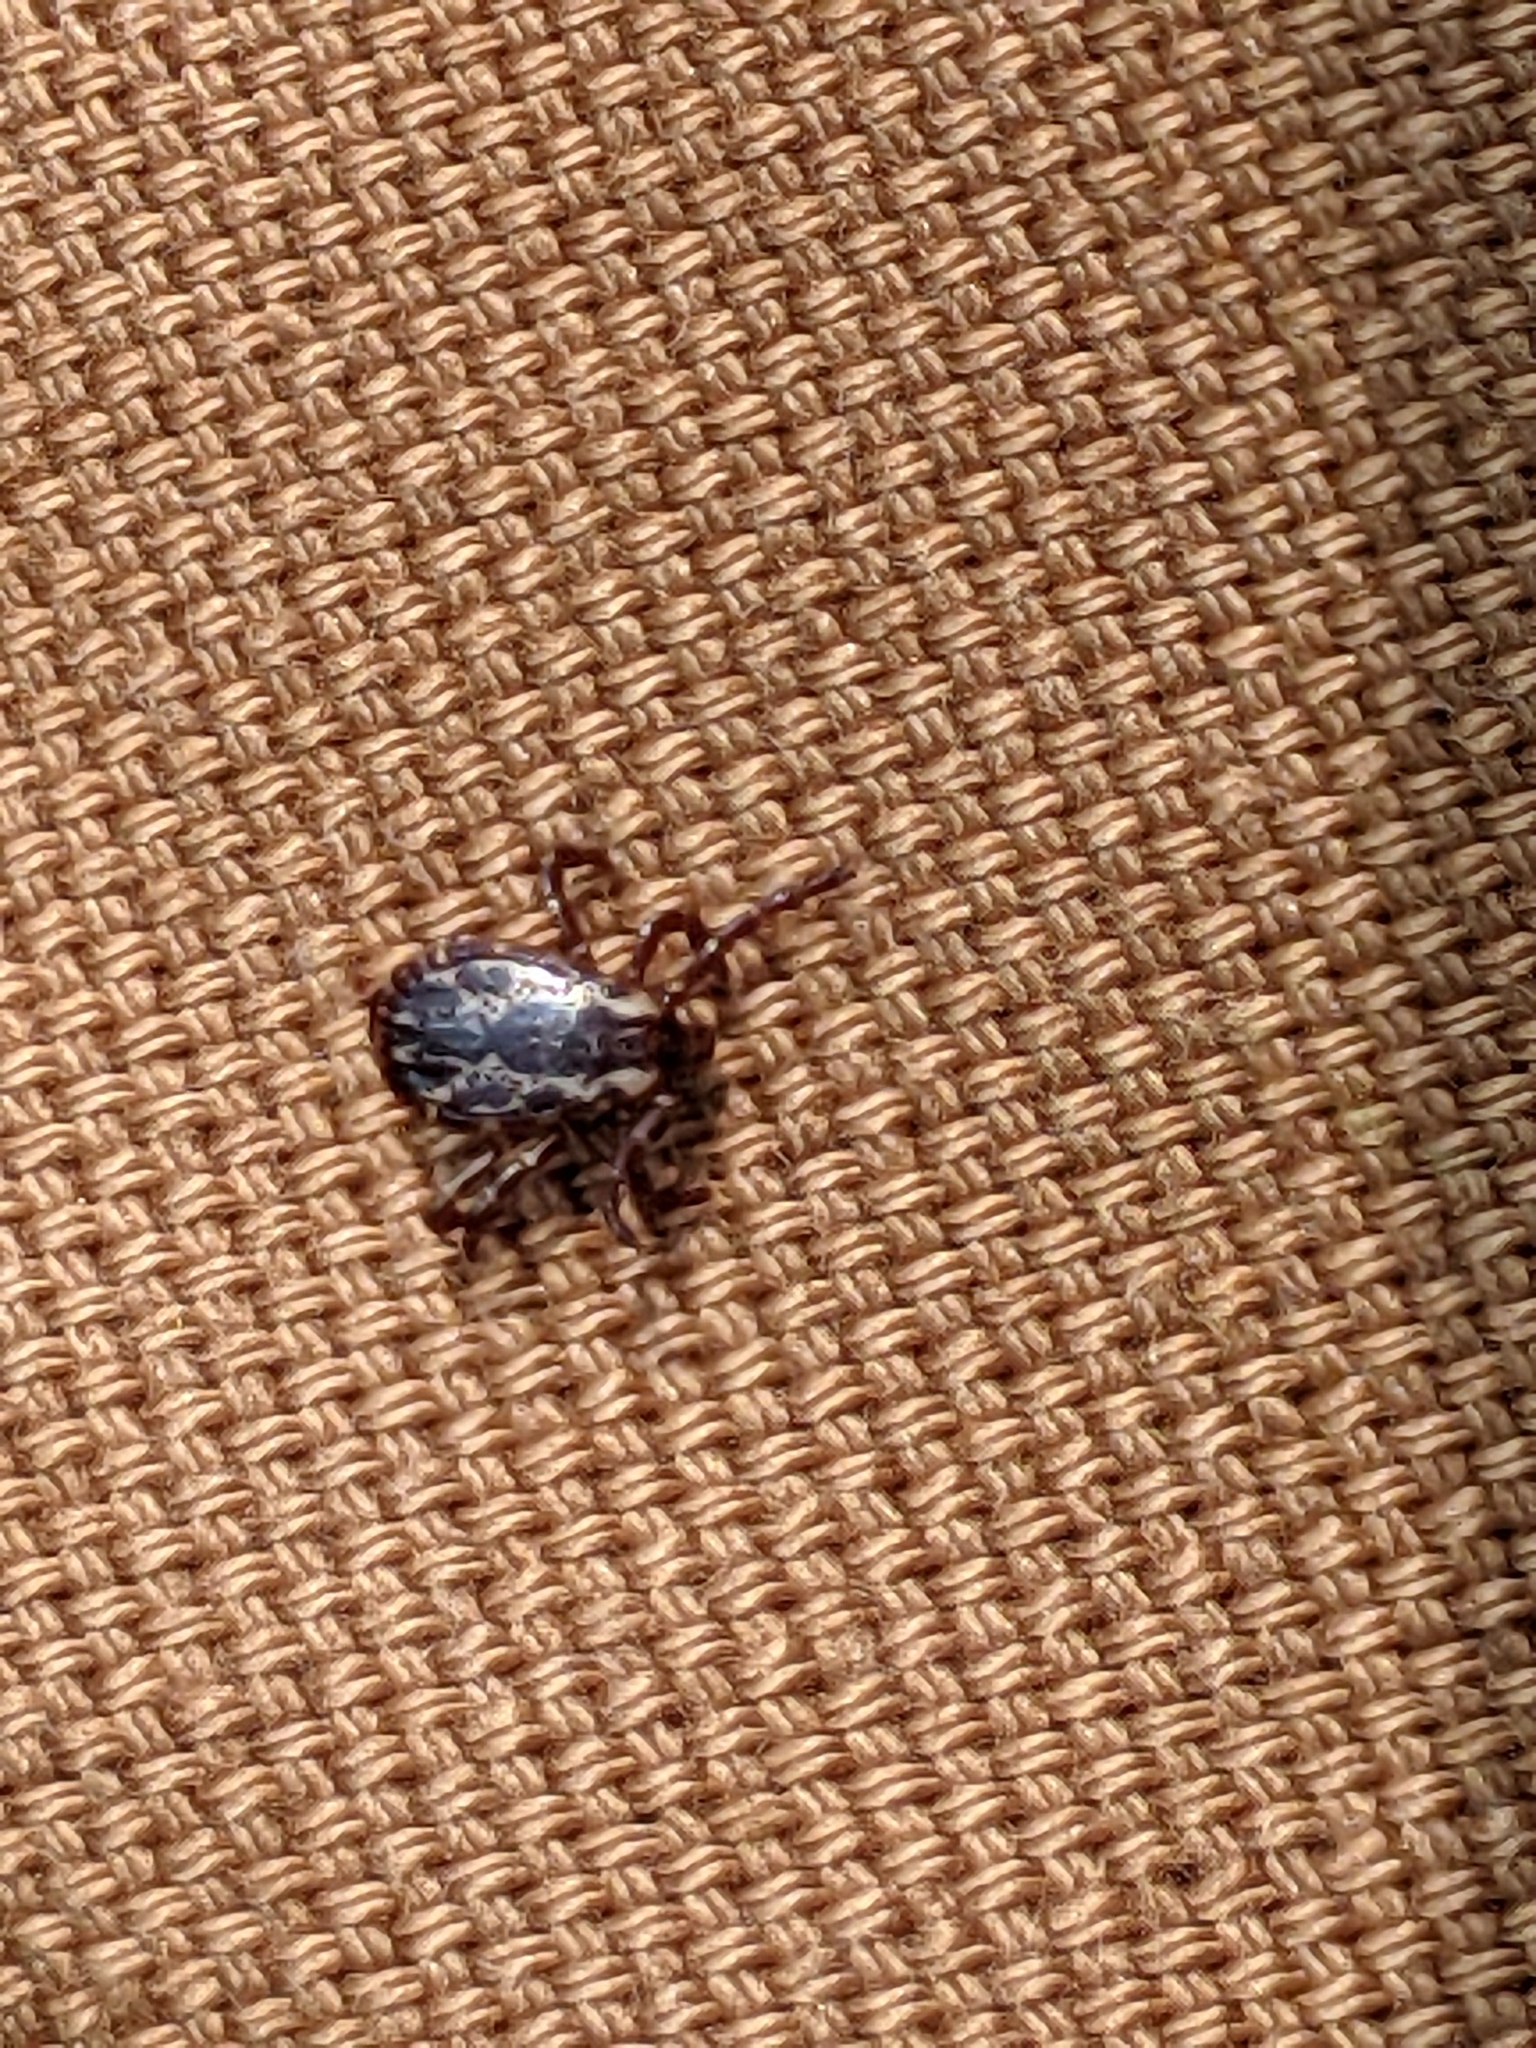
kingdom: Animalia
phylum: Arthropoda
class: Arachnida
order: Ixodida
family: Ixodidae
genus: Dermacentor
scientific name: Dermacentor variabilis
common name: American dog tick
